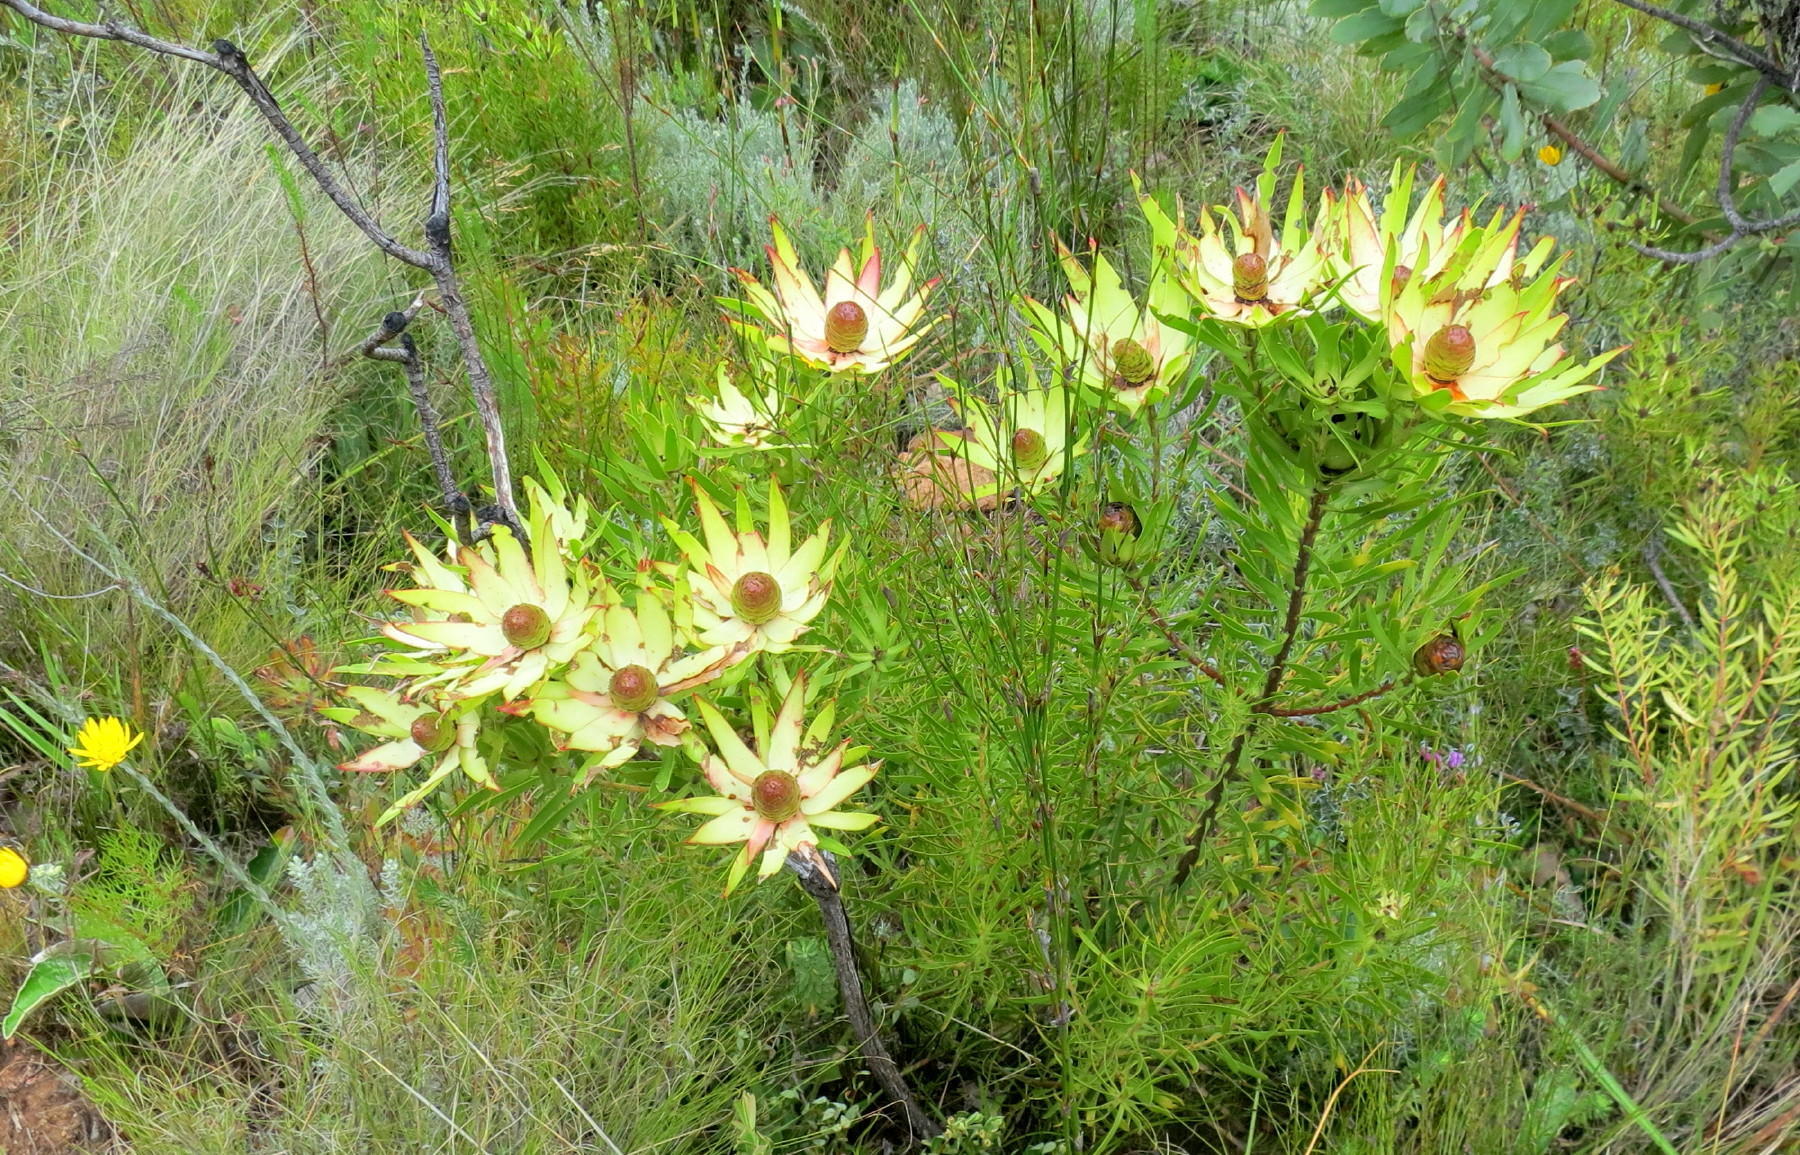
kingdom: Plantae
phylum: Tracheophyta
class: Magnoliopsida
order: Proteales
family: Proteaceae
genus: Leucadendron
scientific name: Leucadendron spissifolium
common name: Spear-leaf conebush
